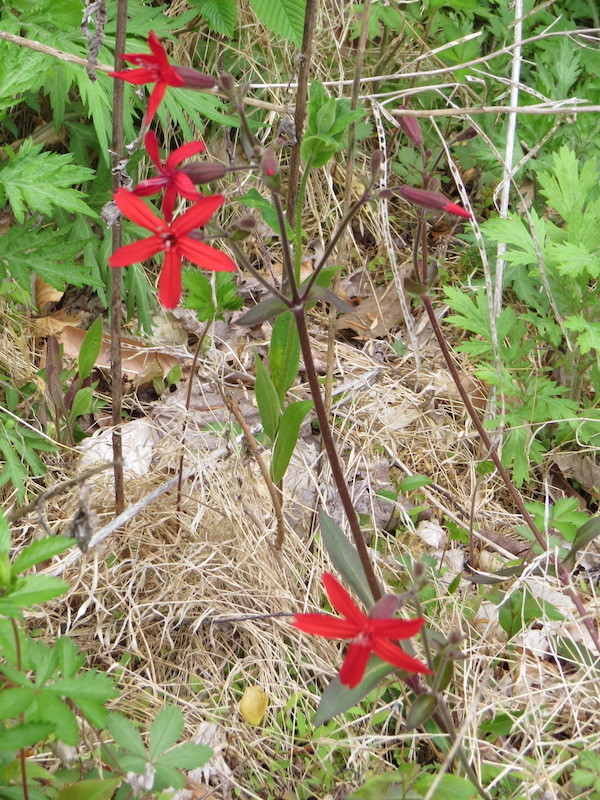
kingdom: Plantae
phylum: Tracheophyta
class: Magnoliopsida
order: Caryophyllales
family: Caryophyllaceae
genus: Silene
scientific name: Silene virginica
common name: Fire-pink
